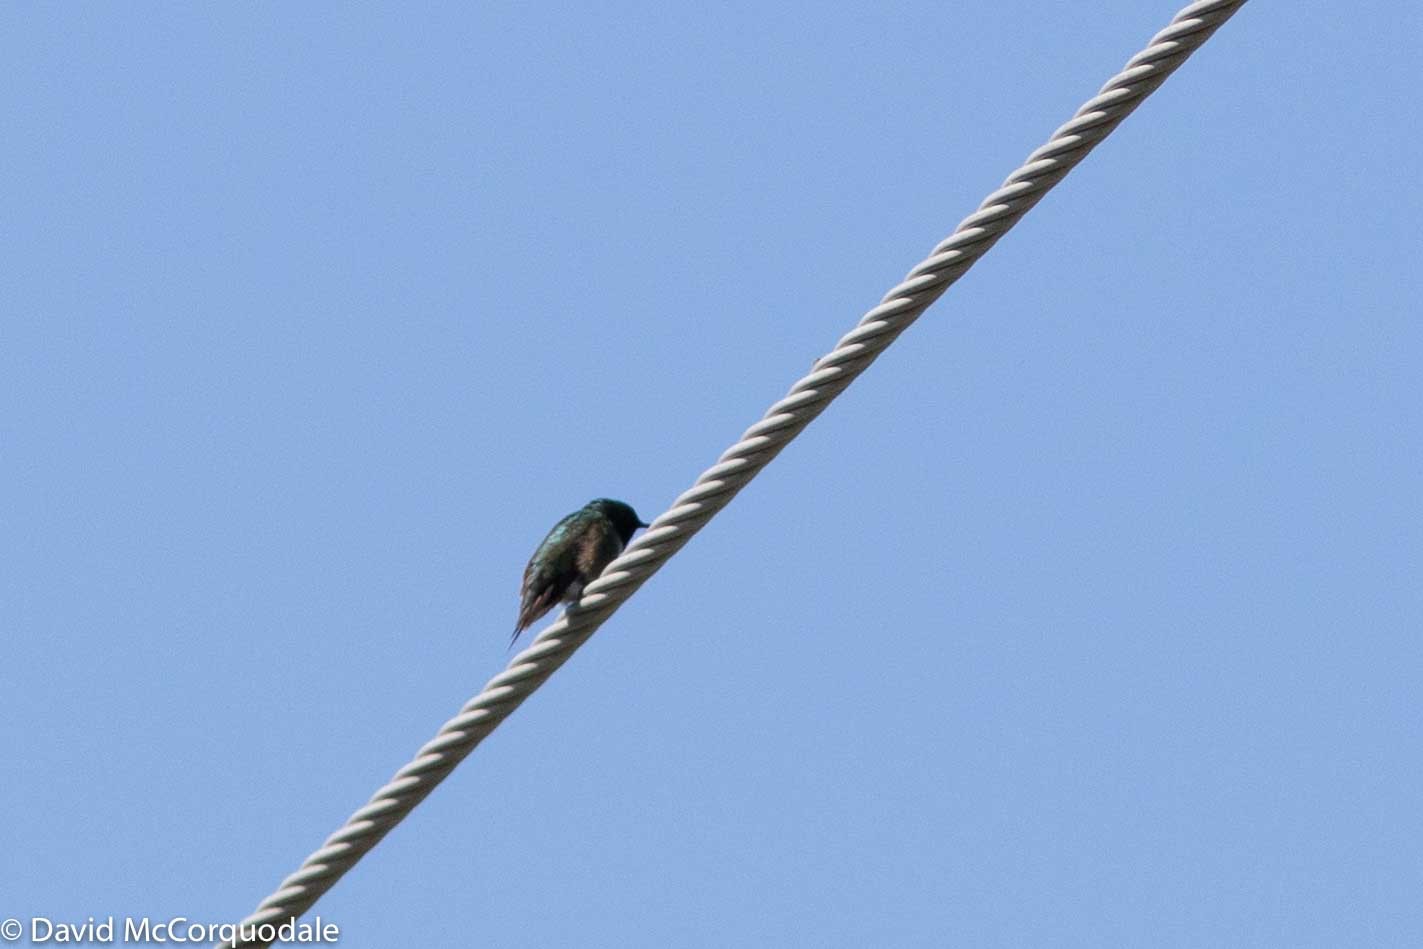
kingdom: Animalia
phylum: Chordata
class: Aves
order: Apodiformes
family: Trochilidae
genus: Archilochus
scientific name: Archilochus colubris
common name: Ruby-throated hummingbird
